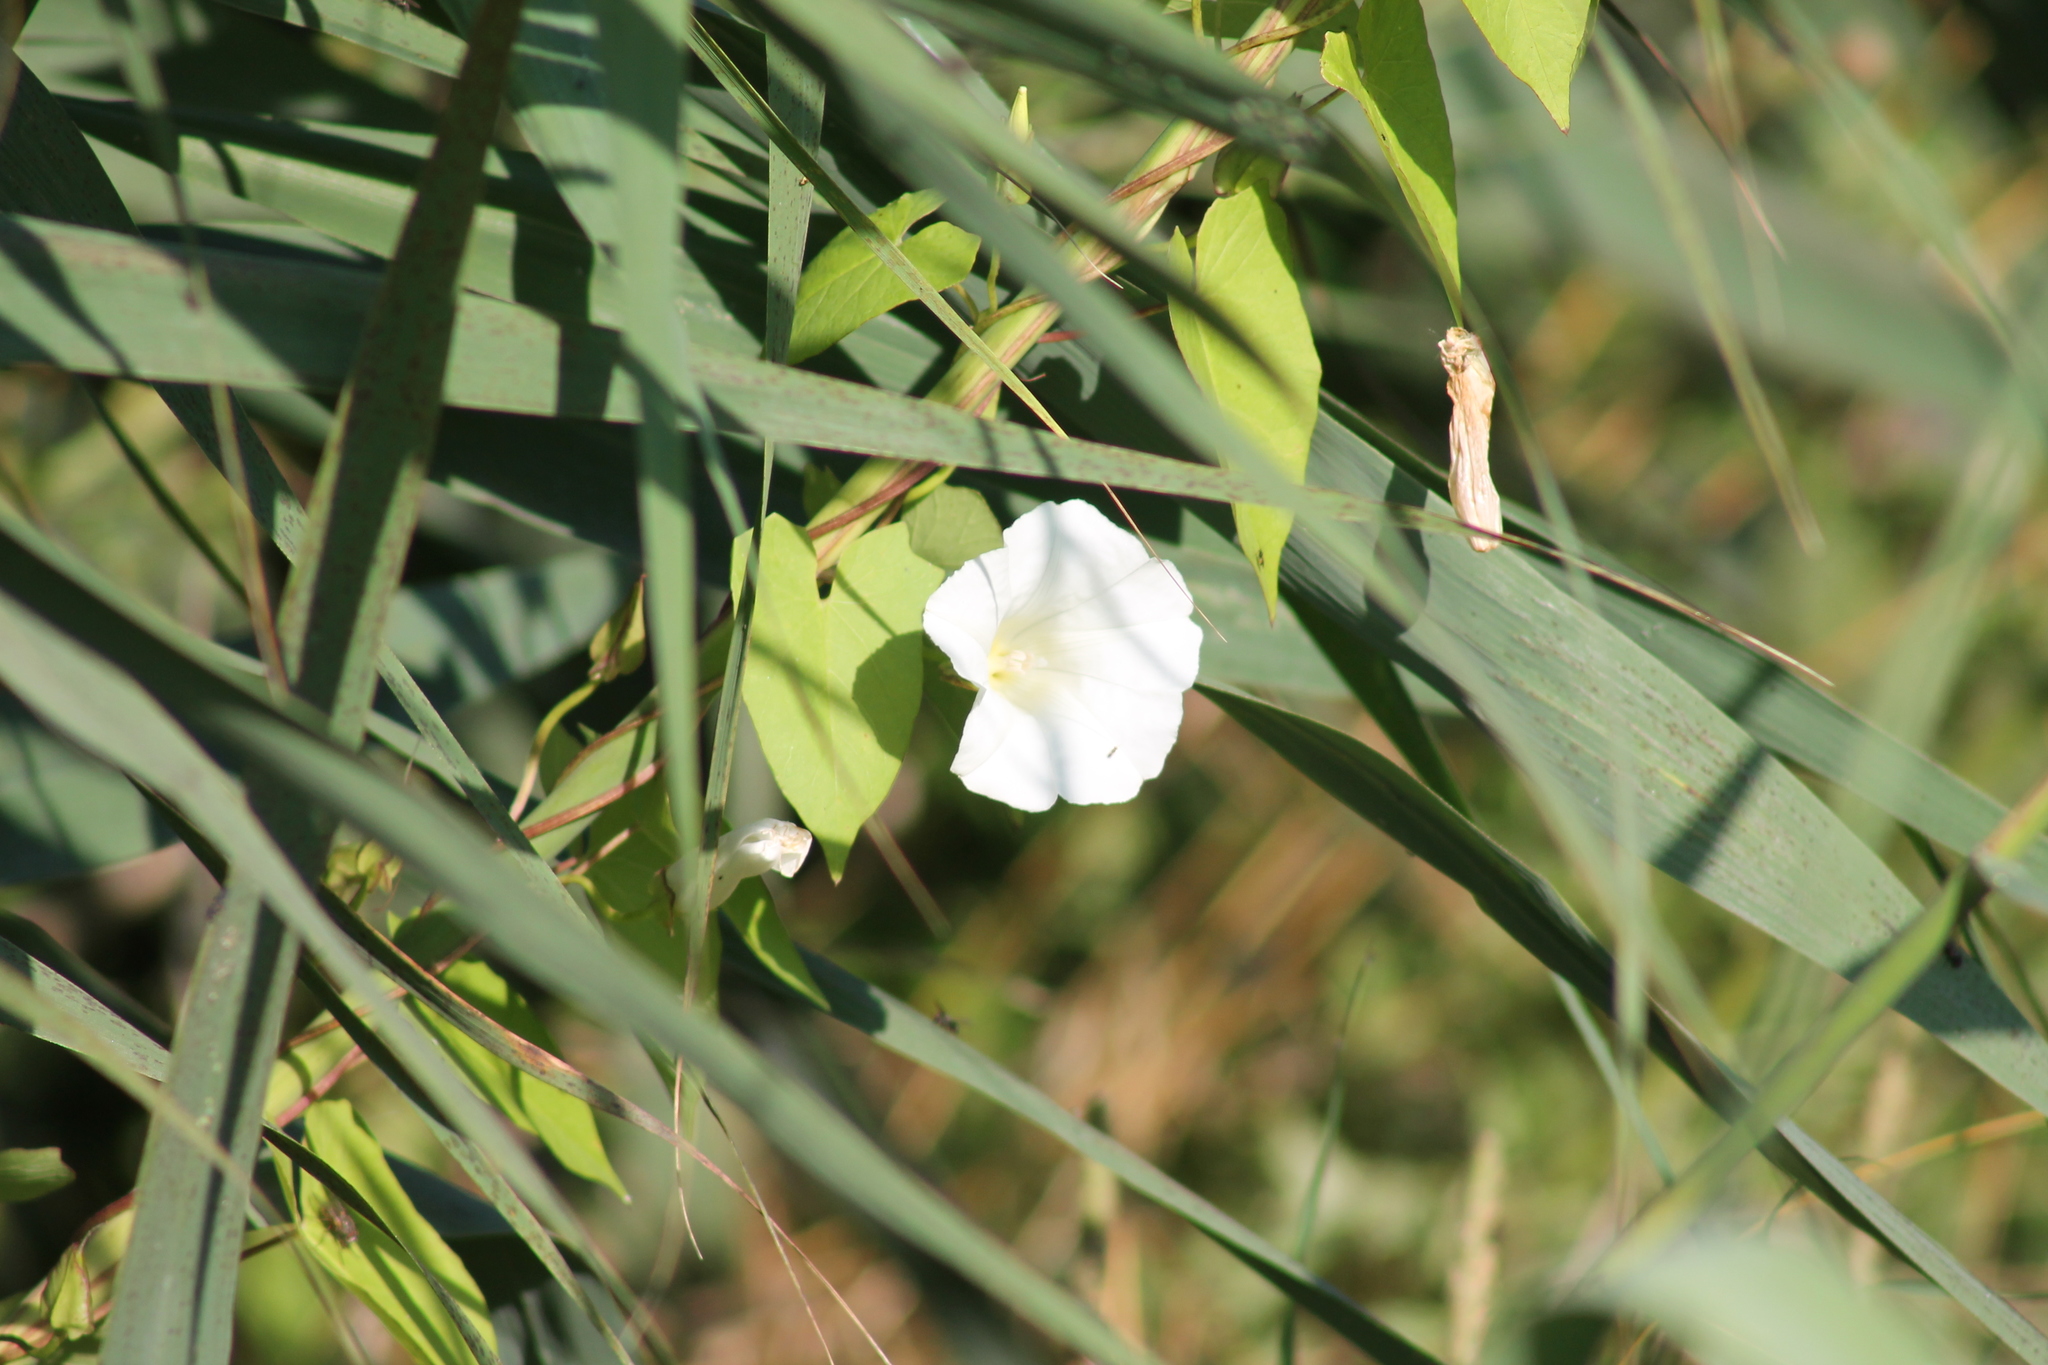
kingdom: Plantae
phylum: Tracheophyta
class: Magnoliopsida
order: Solanales
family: Convolvulaceae
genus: Calystegia
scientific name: Calystegia sepium
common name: Hedge bindweed
